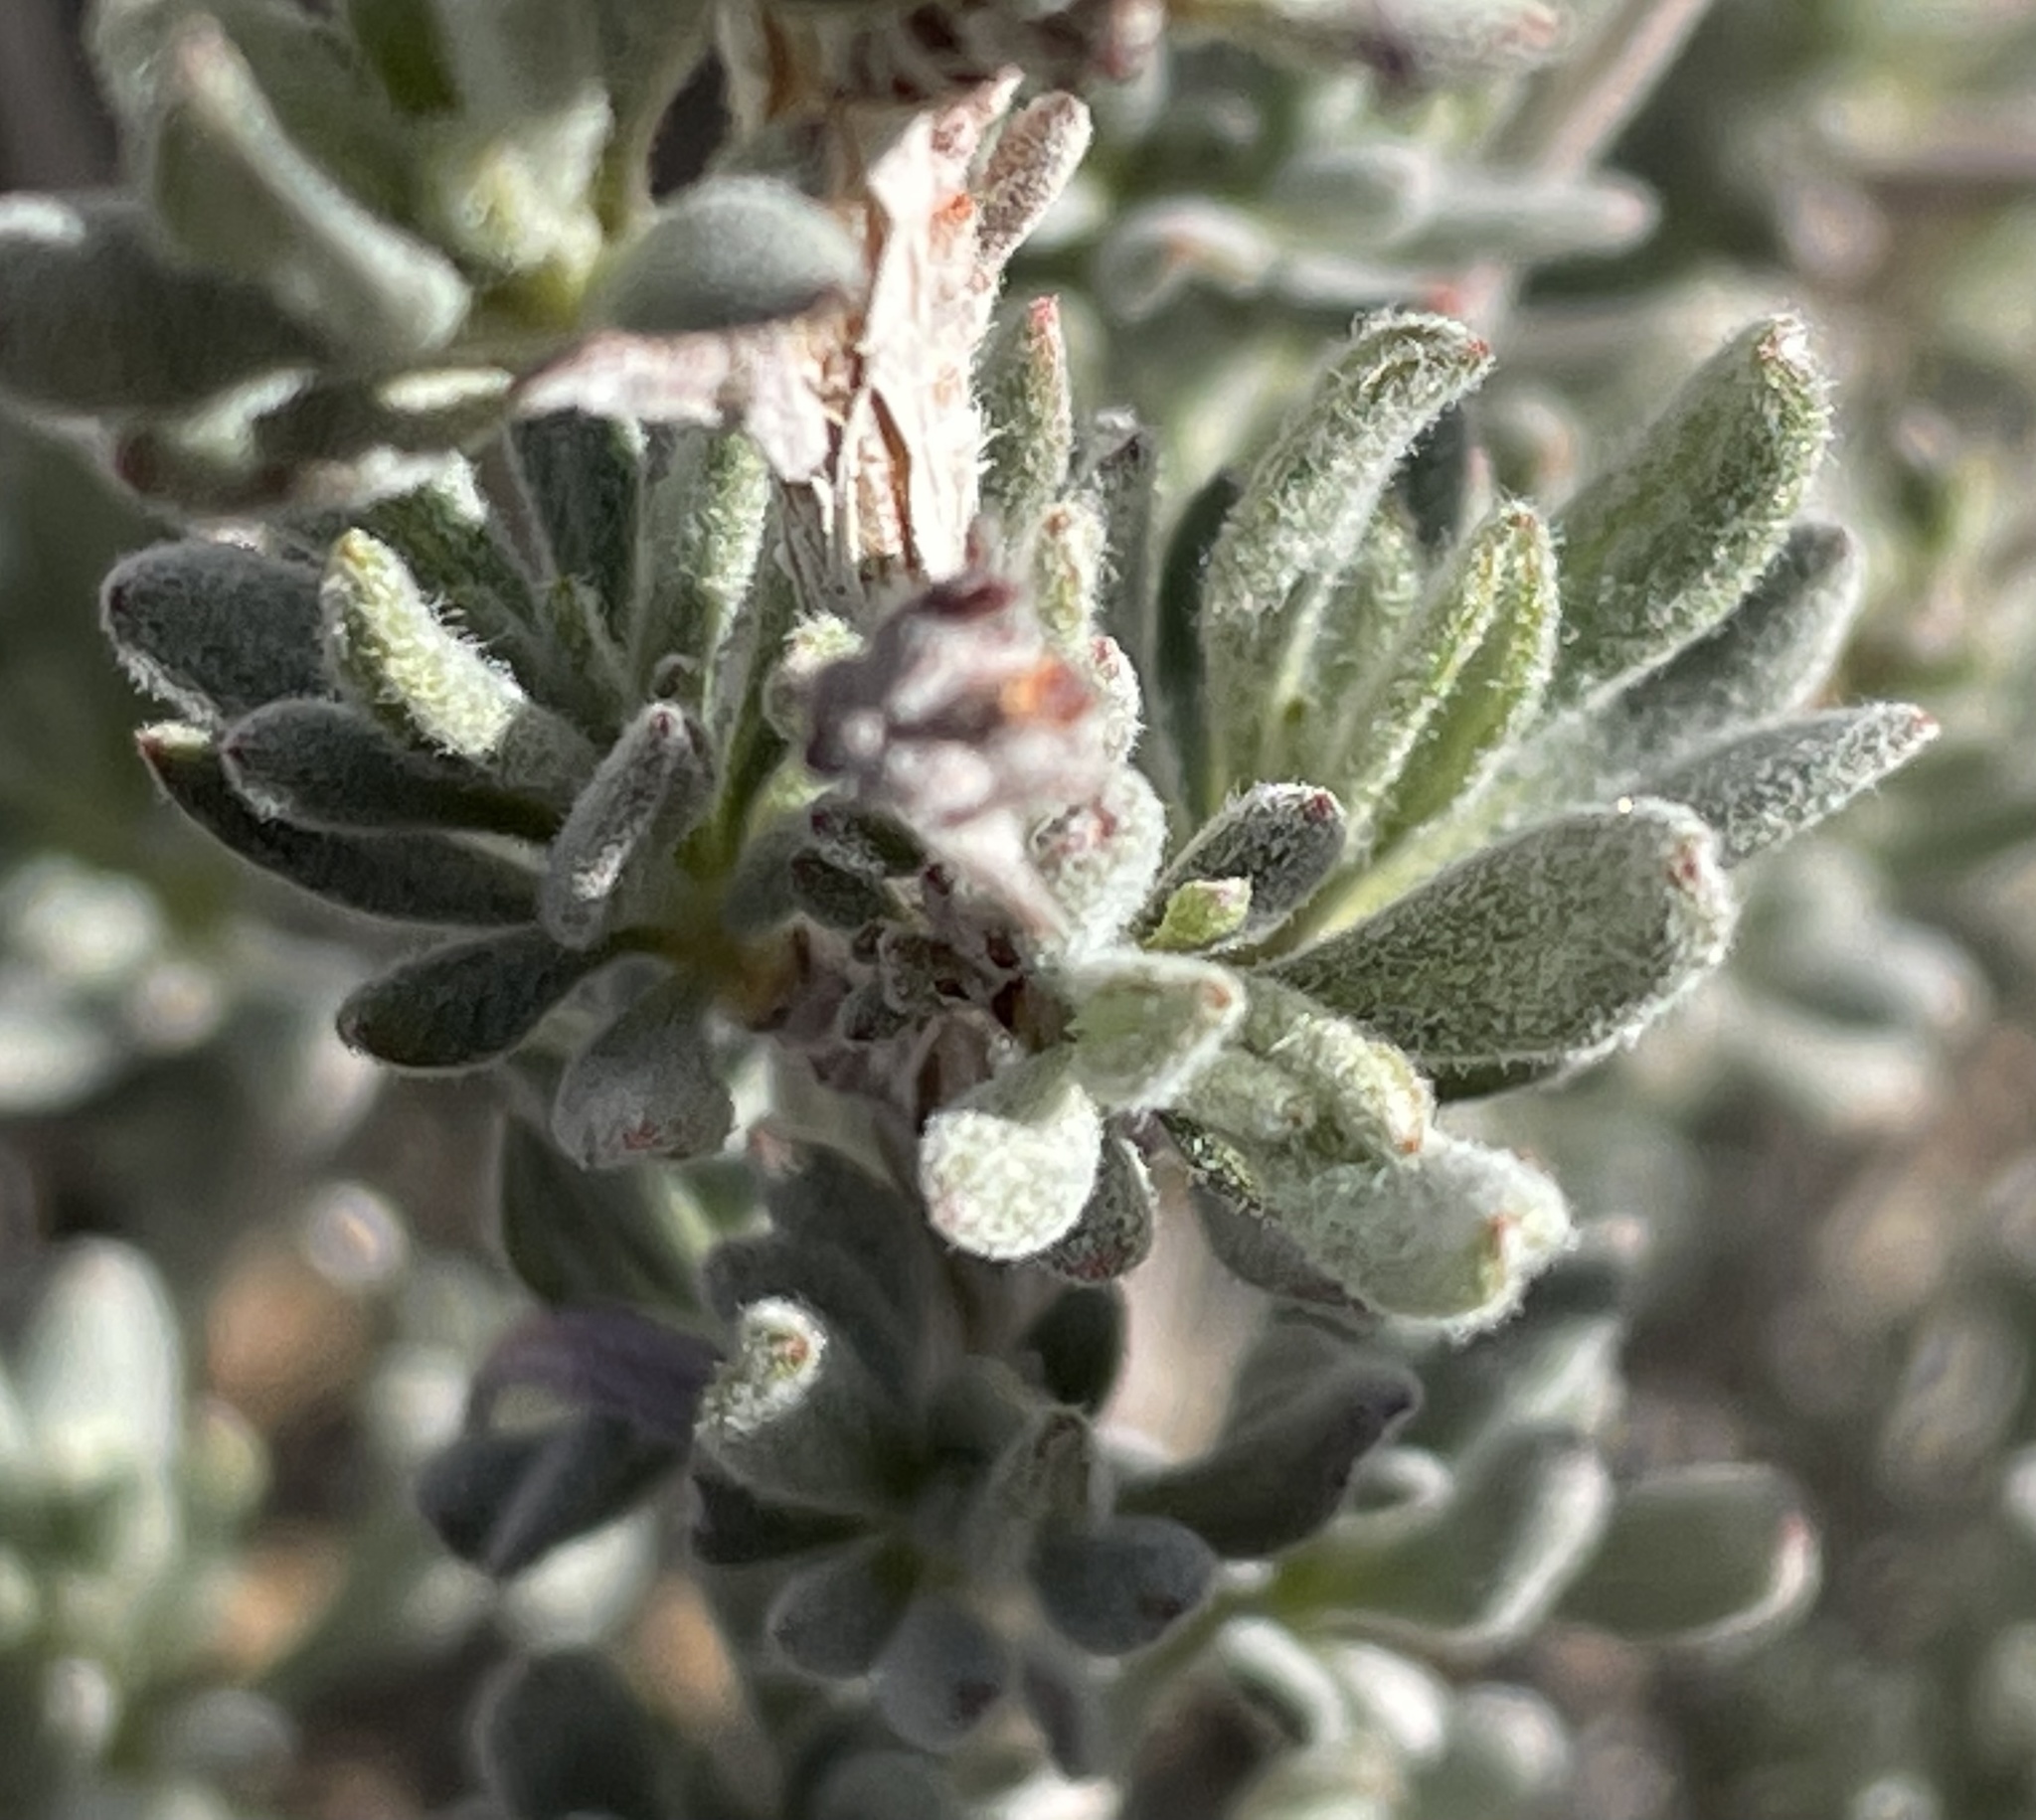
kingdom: Plantae
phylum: Tracheophyta
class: Magnoliopsida
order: Caryophyllales
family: Polygonaceae
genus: Eriogonum
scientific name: Eriogonum fasciculatum
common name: California wild buckwheat
